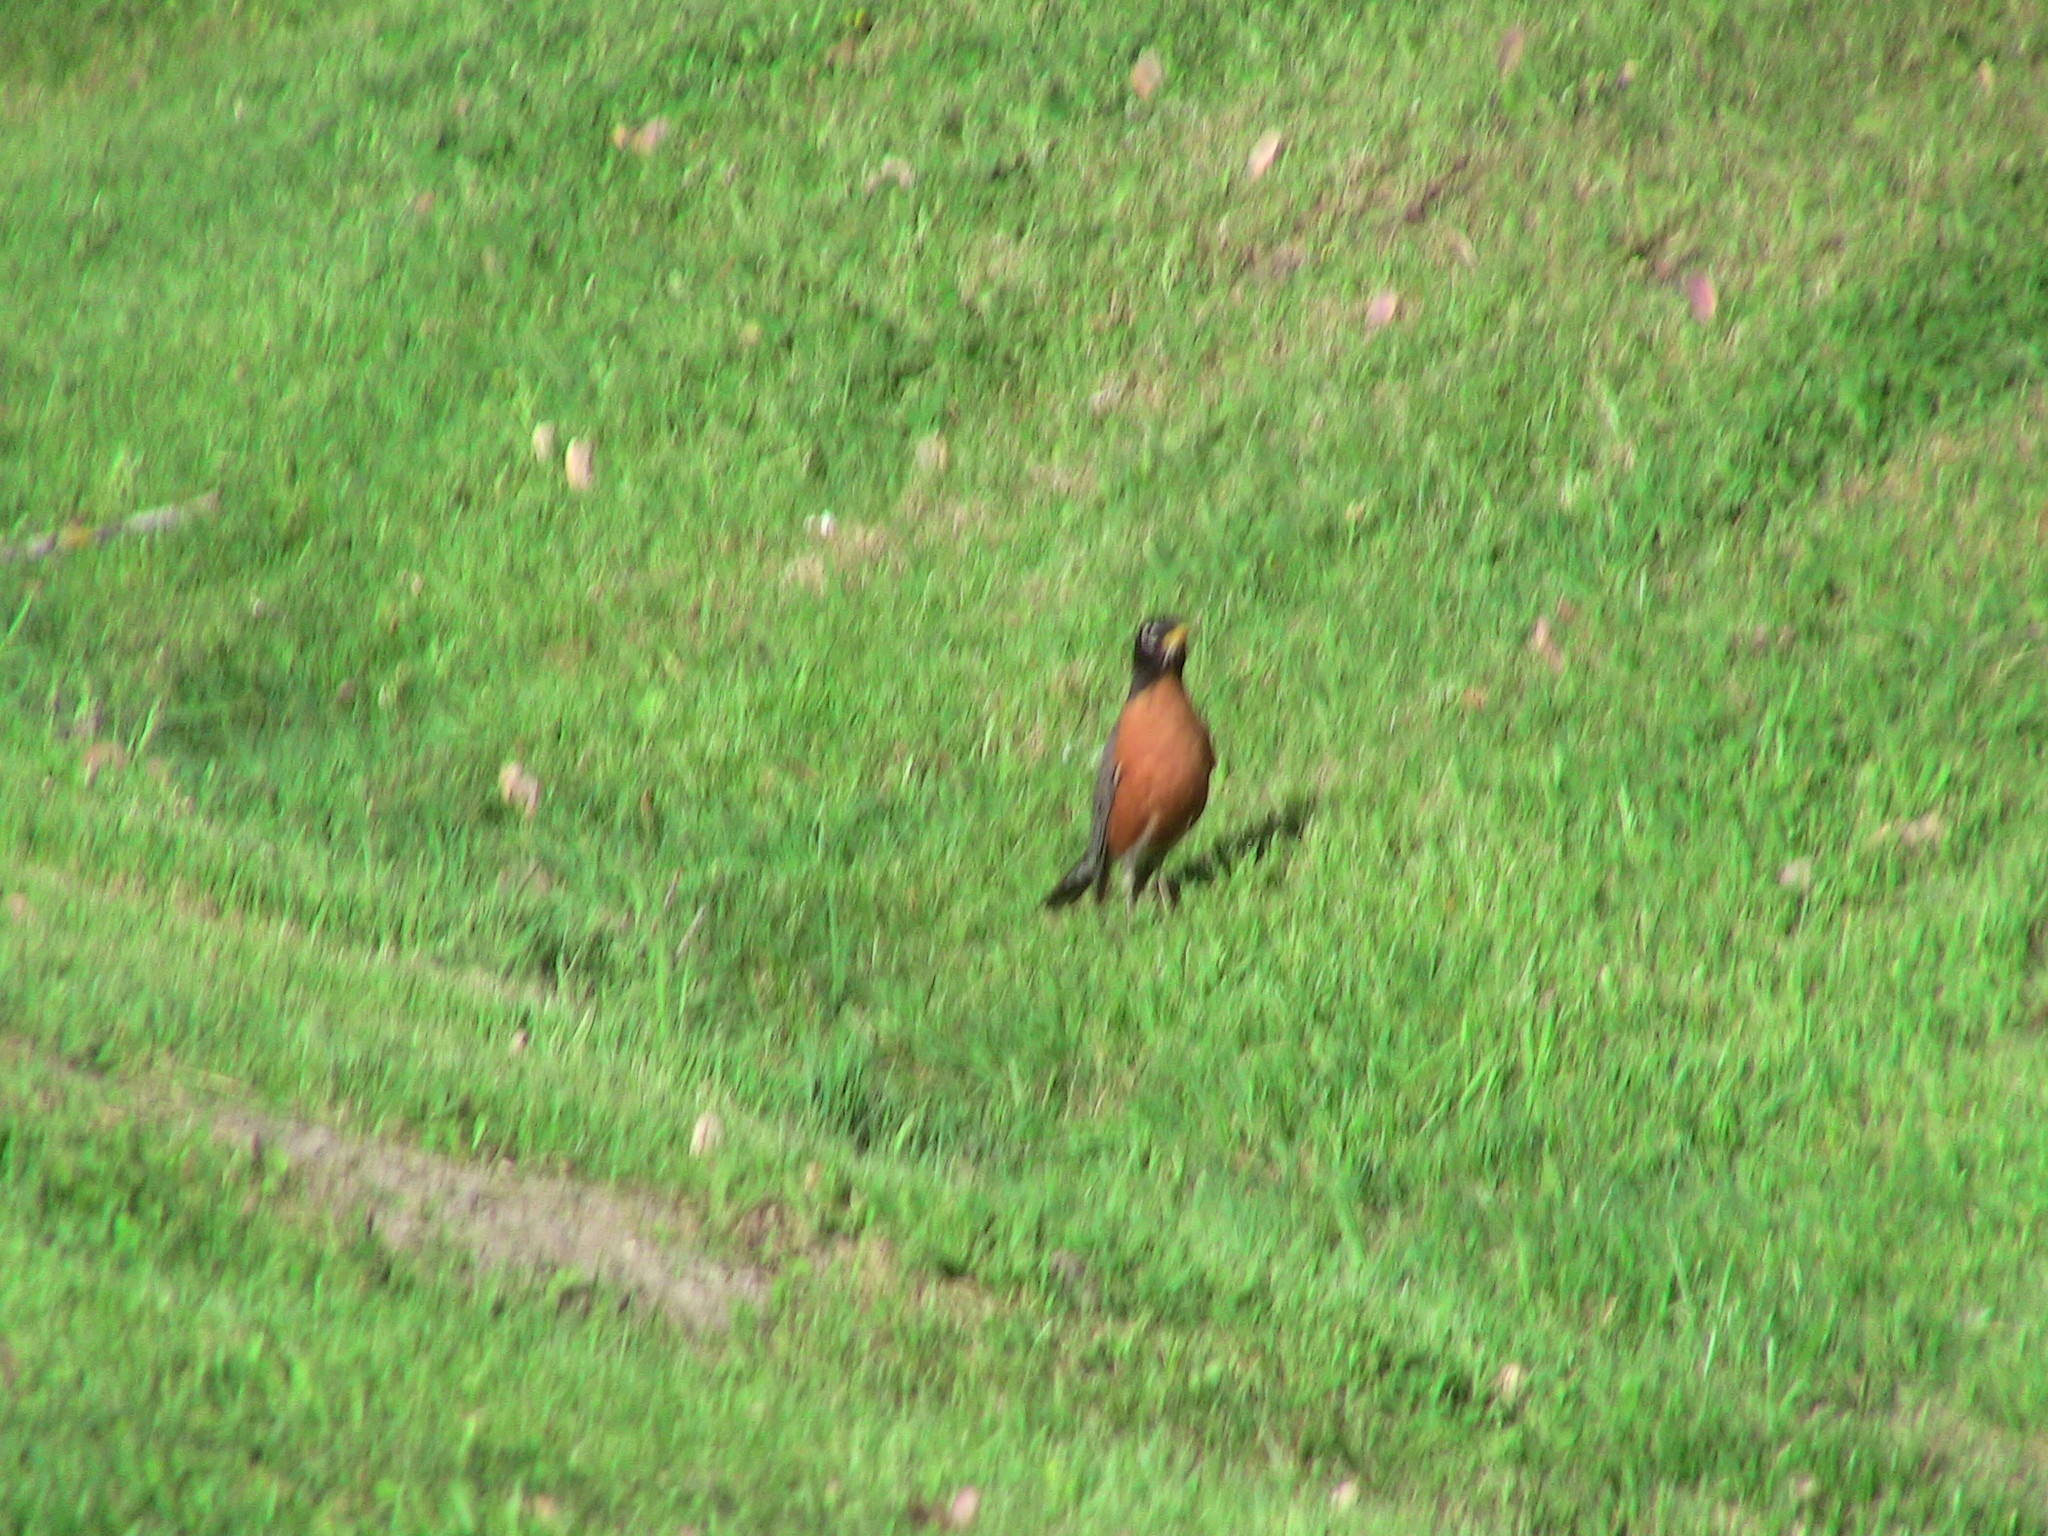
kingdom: Animalia
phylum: Chordata
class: Aves
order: Passeriformes
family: Turdidae
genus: Turdus
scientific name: Turdus migratorius
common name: American robin
